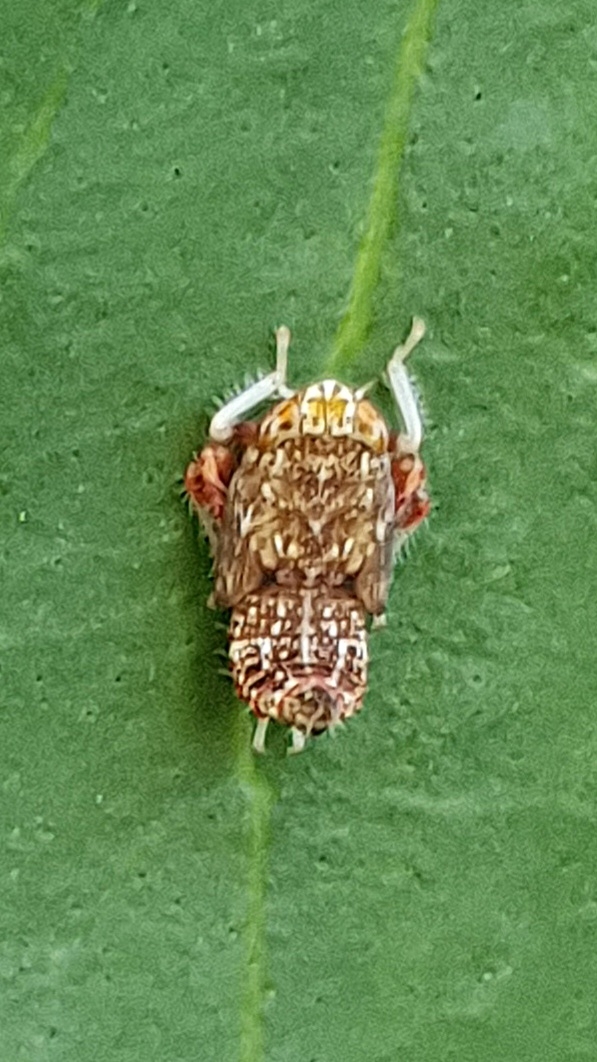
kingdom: Animalia
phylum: Arthropoda
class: Insecta
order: Hemiptera
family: Cicadellidae
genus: Orientus
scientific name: Orientus ishidae
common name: Japanese leafhopper
